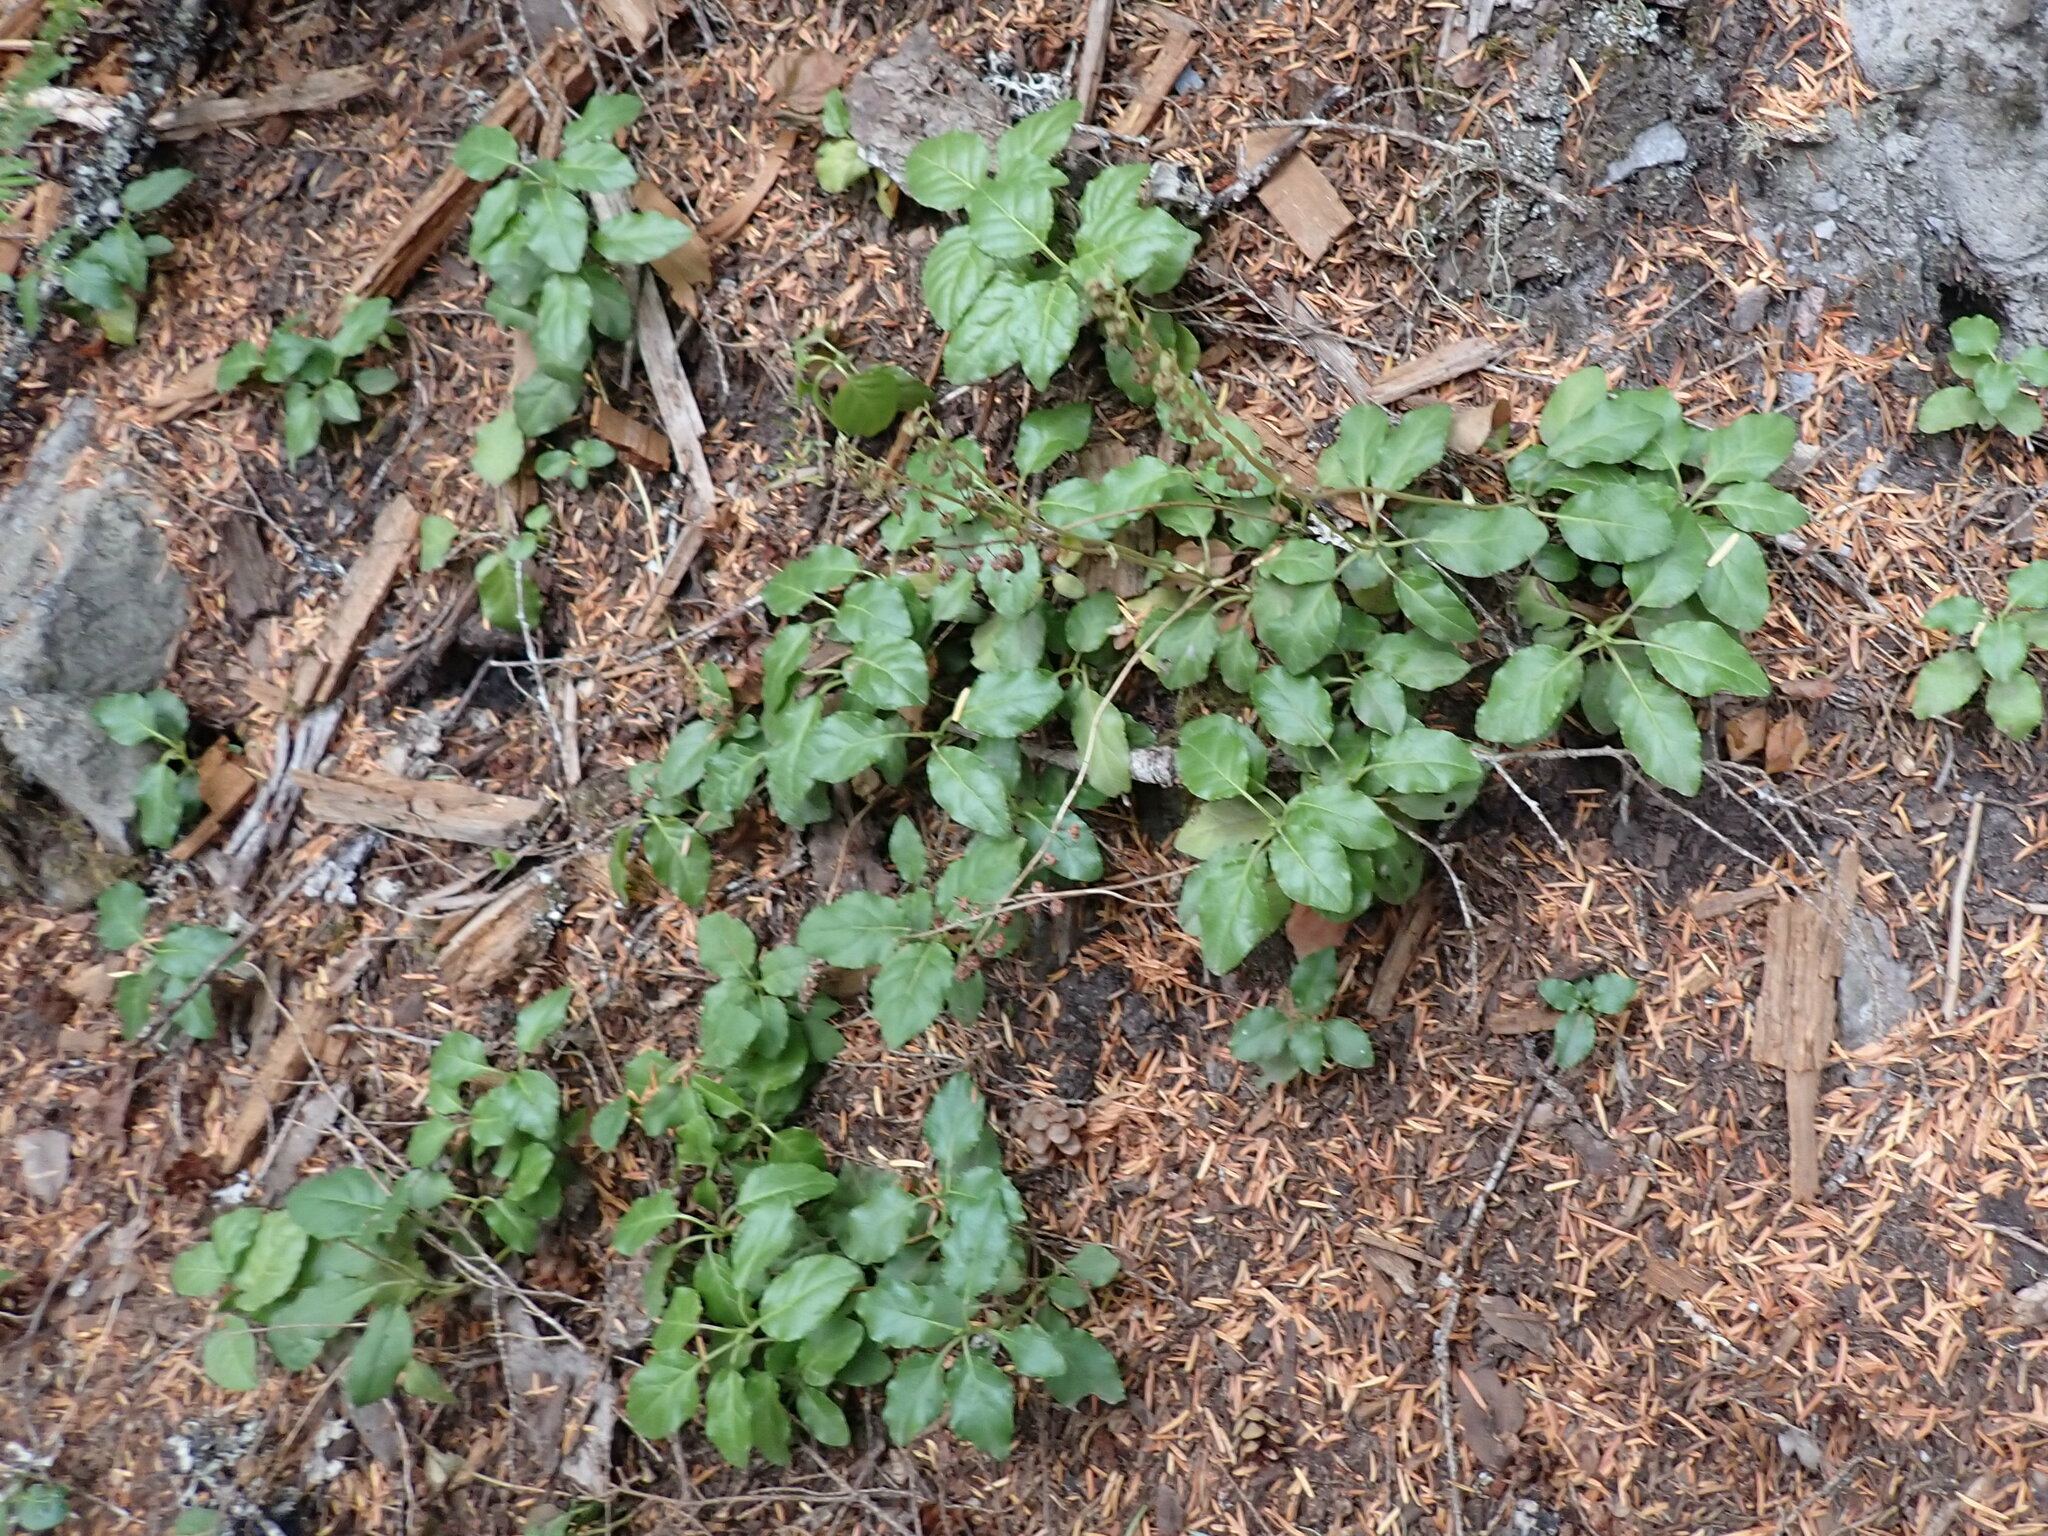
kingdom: Plantae
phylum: Tracheophyta
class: Magnoliopsida
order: Ericales
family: Ericaceae
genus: Orthilia
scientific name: Orthilia secunda
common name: One-sided orthilia
